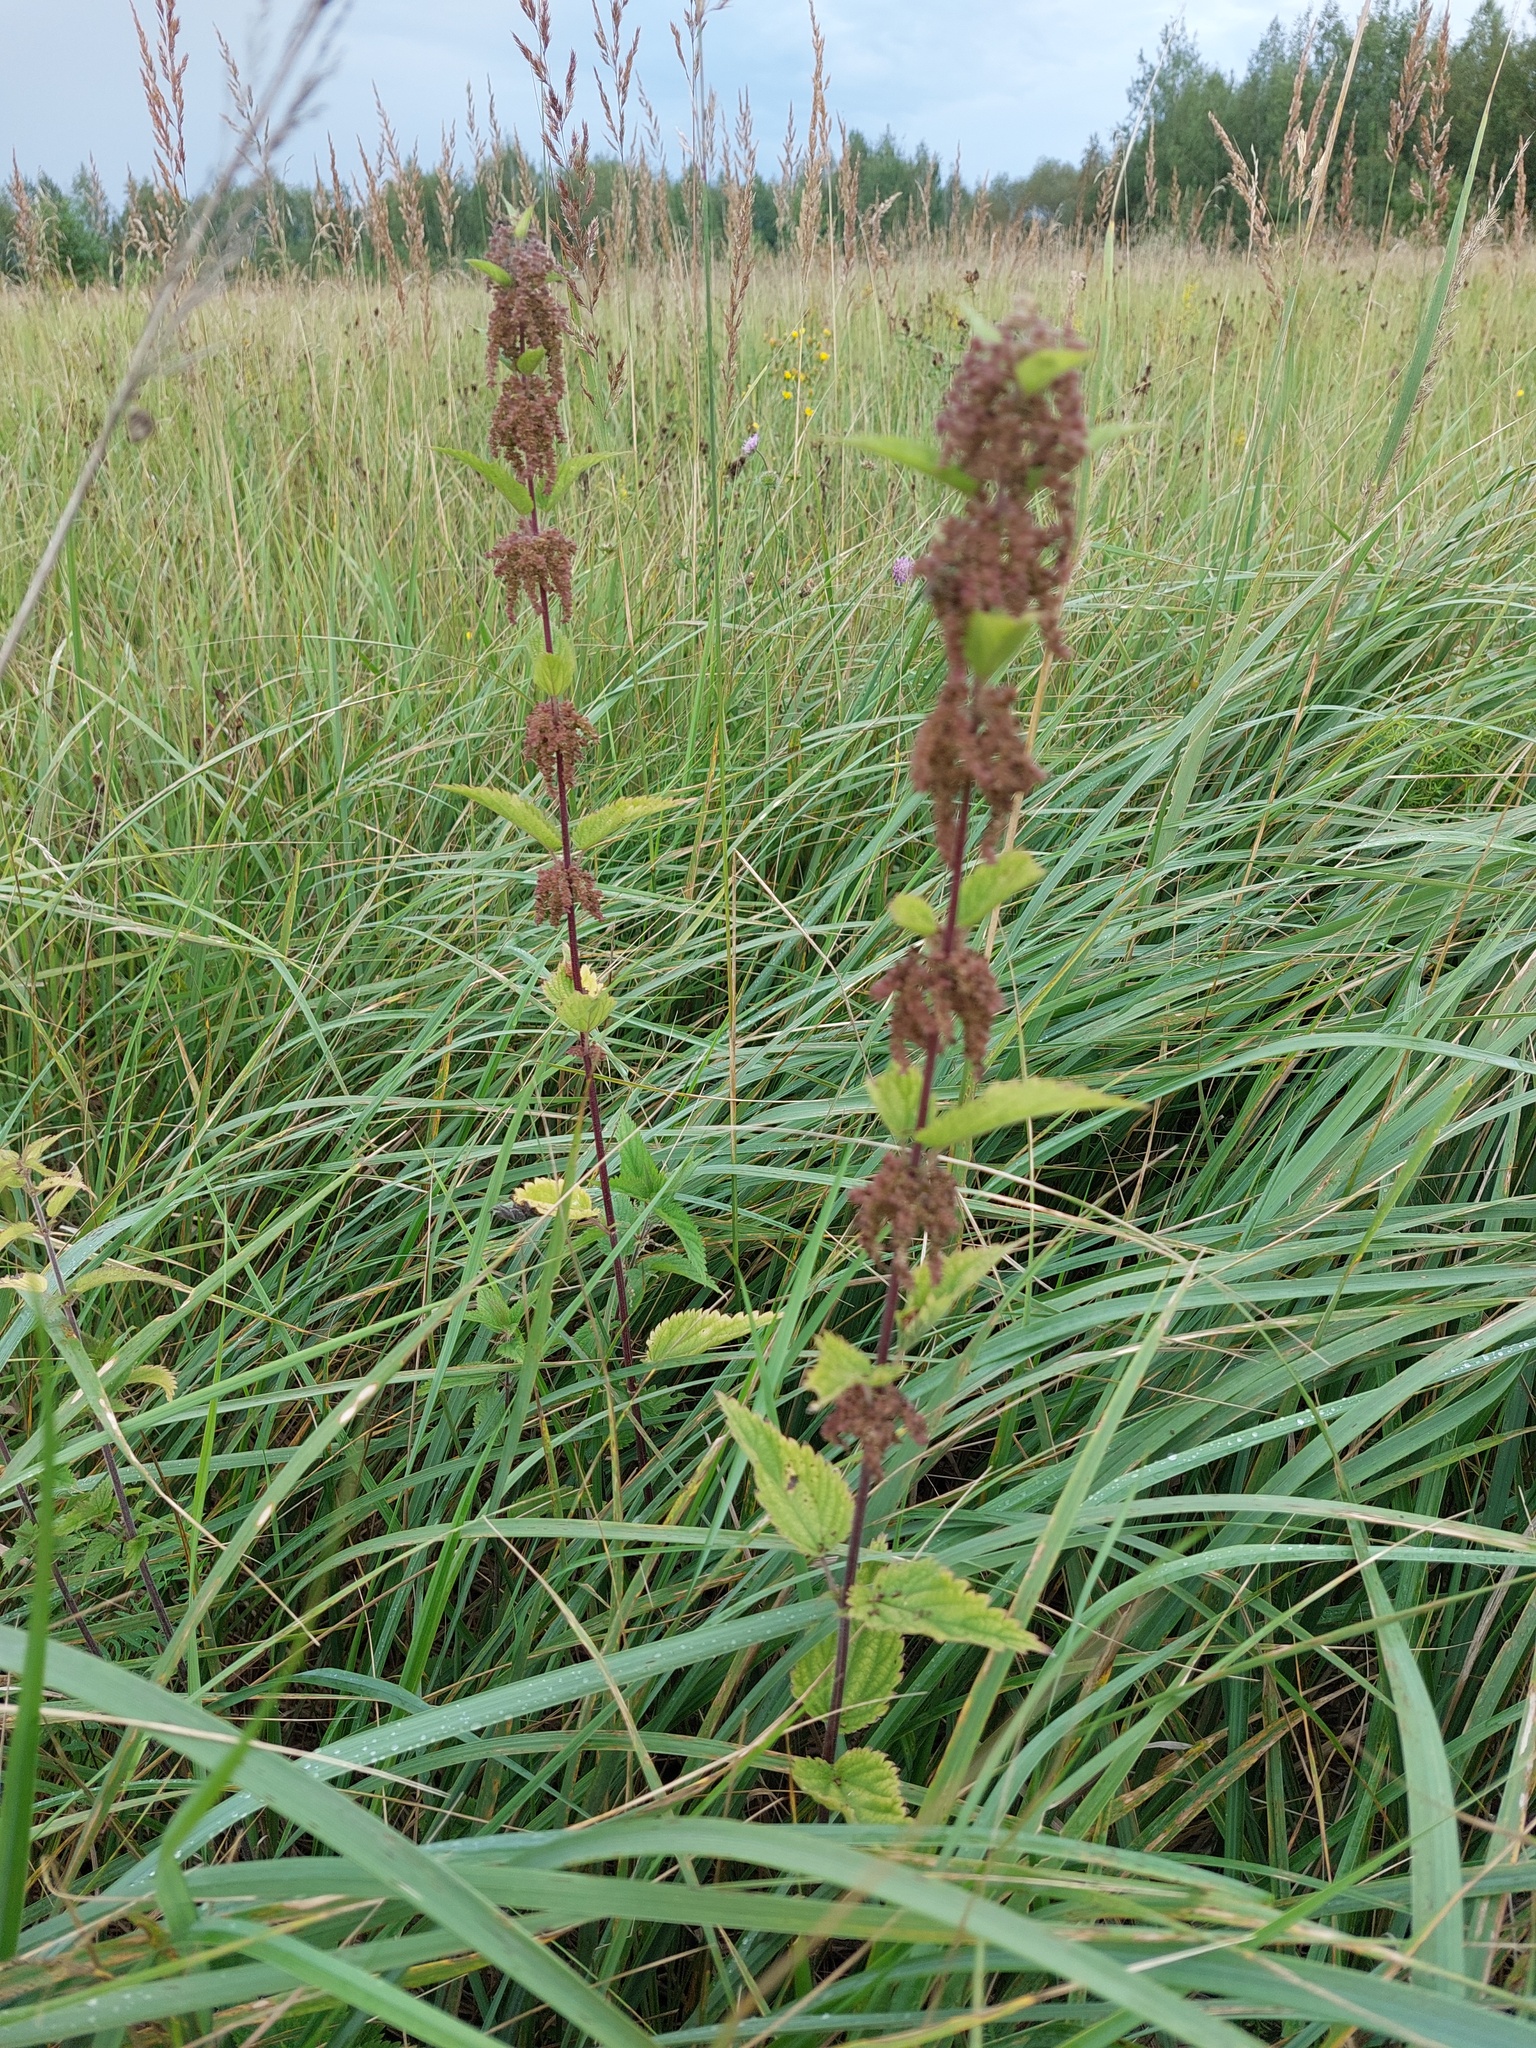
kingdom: Plantae
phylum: Tracheophyta
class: Magnoliopsida
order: Rosales
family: Urticaceae
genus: Urtica
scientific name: Urtica dioica
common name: Common nettle
